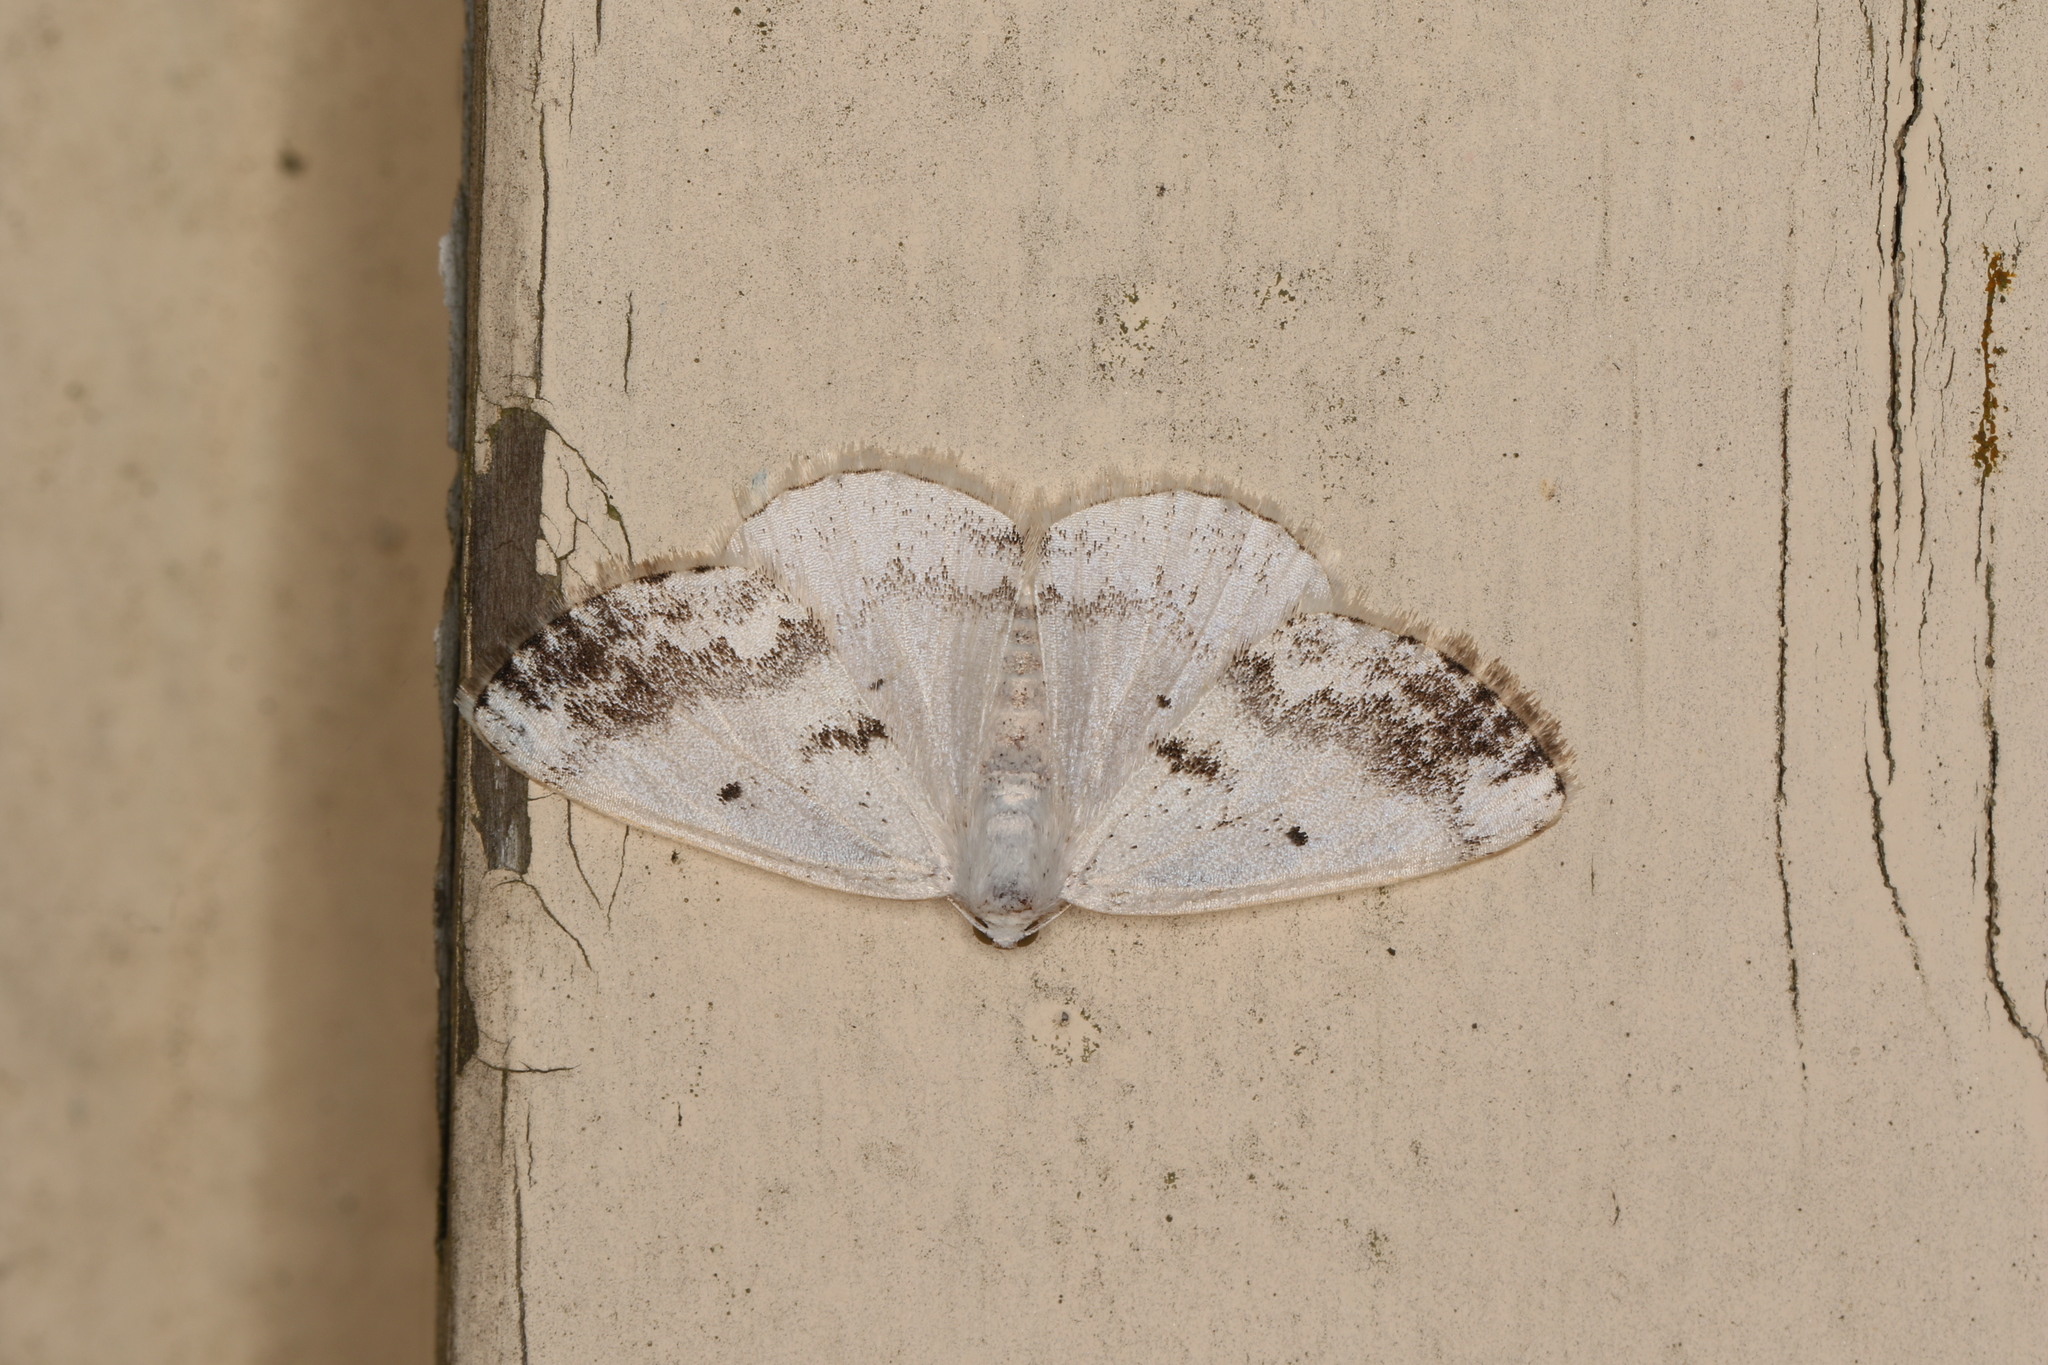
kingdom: Animalia
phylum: Arthropoda
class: Insecta
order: Lepidoptera
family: Geometridae
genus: Lomographa
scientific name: Lomographa temerata
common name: Clouded silver
